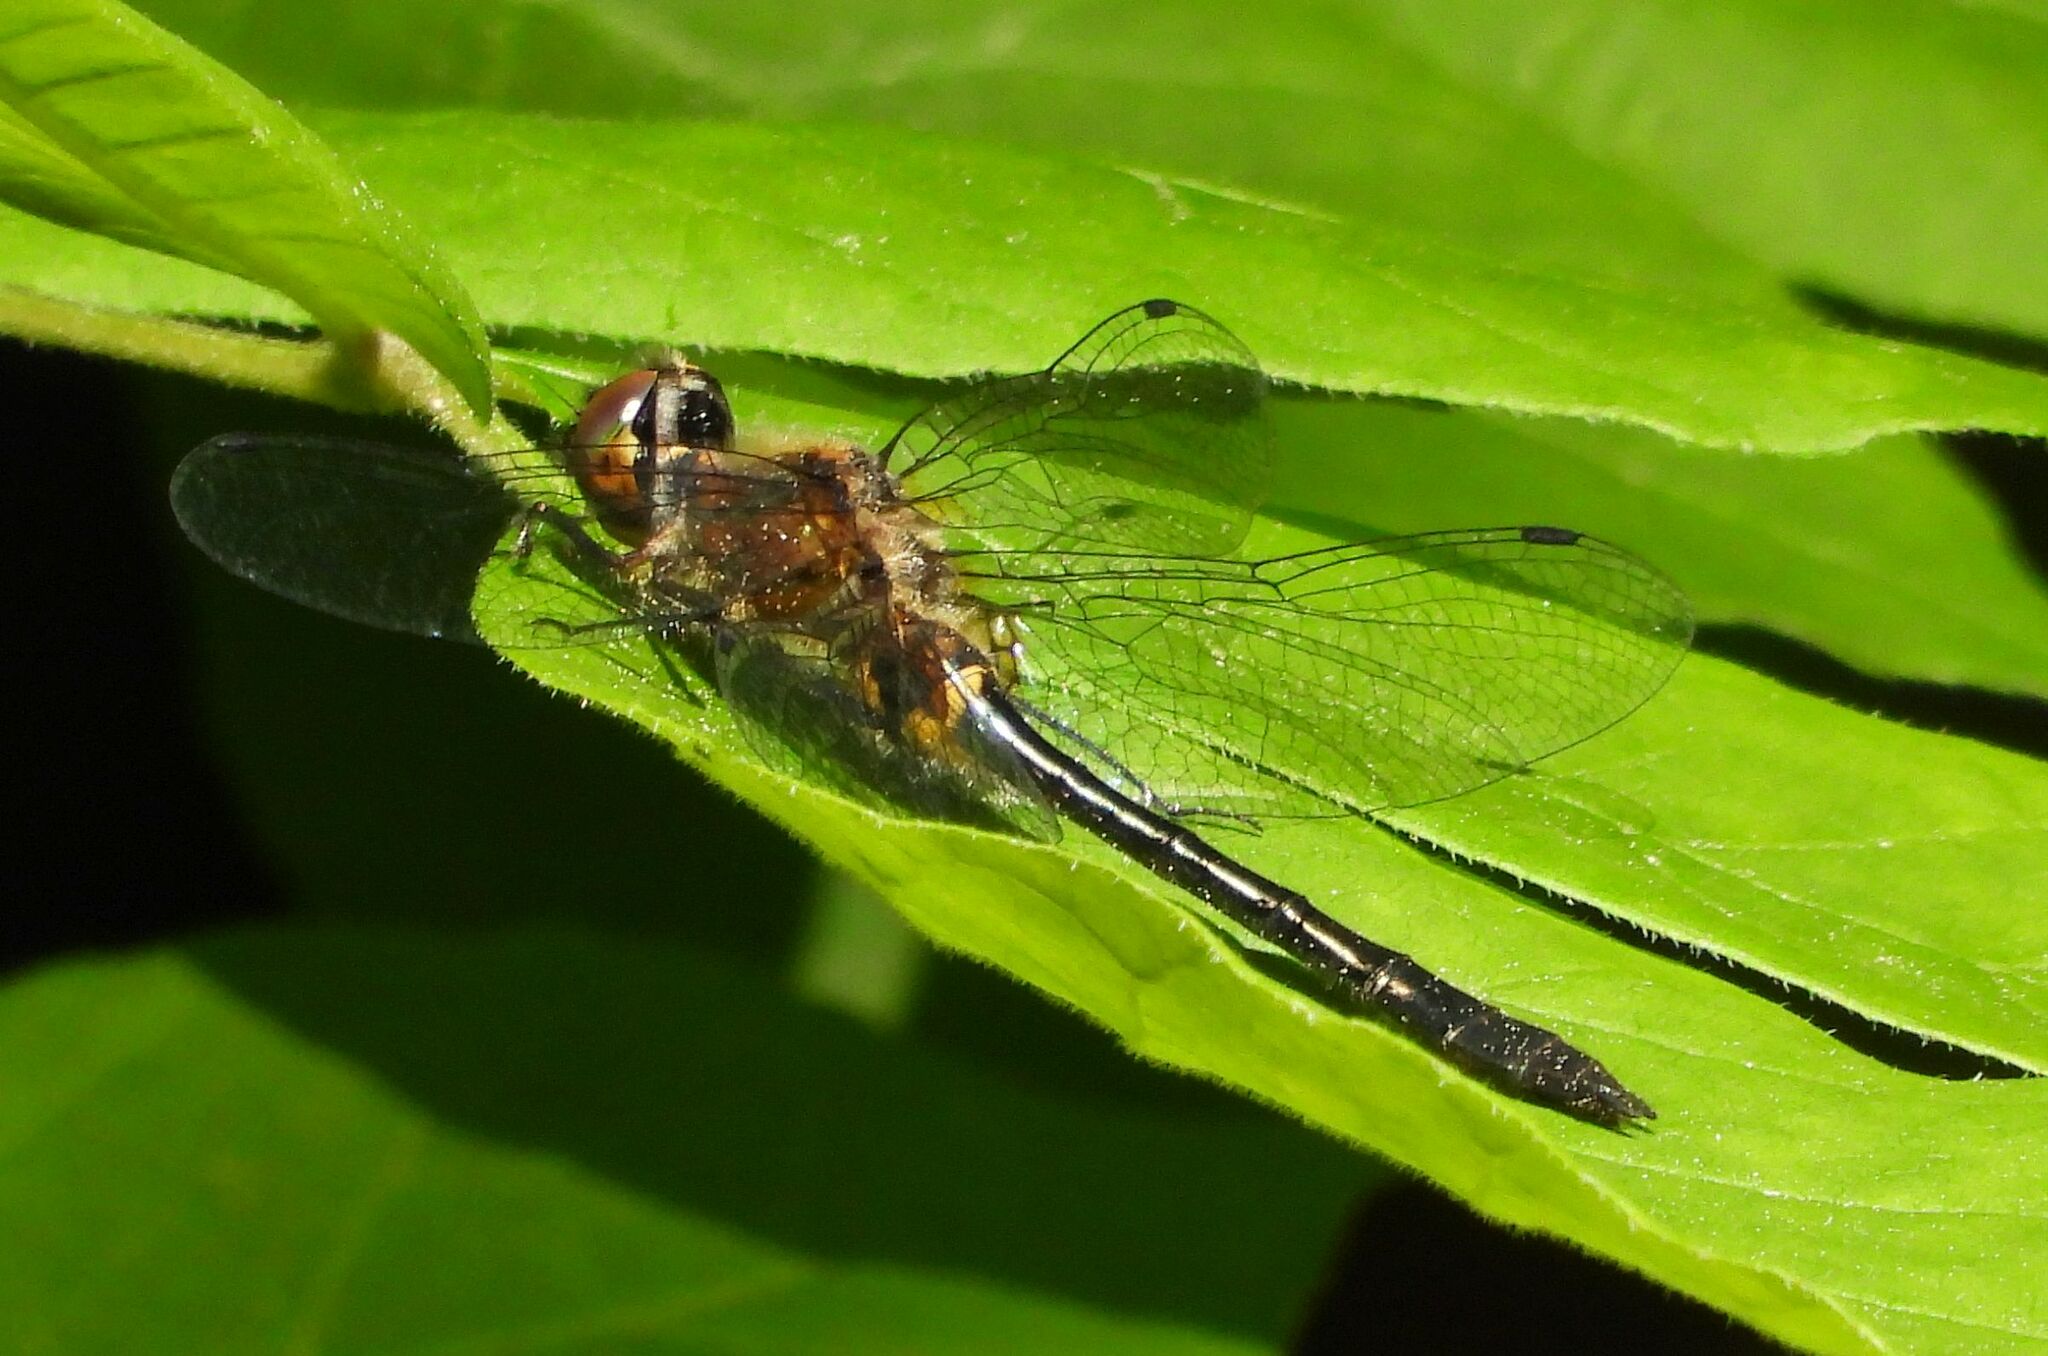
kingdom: Animalia
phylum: Arthropoda
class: Insecta
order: Odonata
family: Corduliidae
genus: Dorocordulia
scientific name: Dorocordulia libera
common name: Racket-tailed emerald
